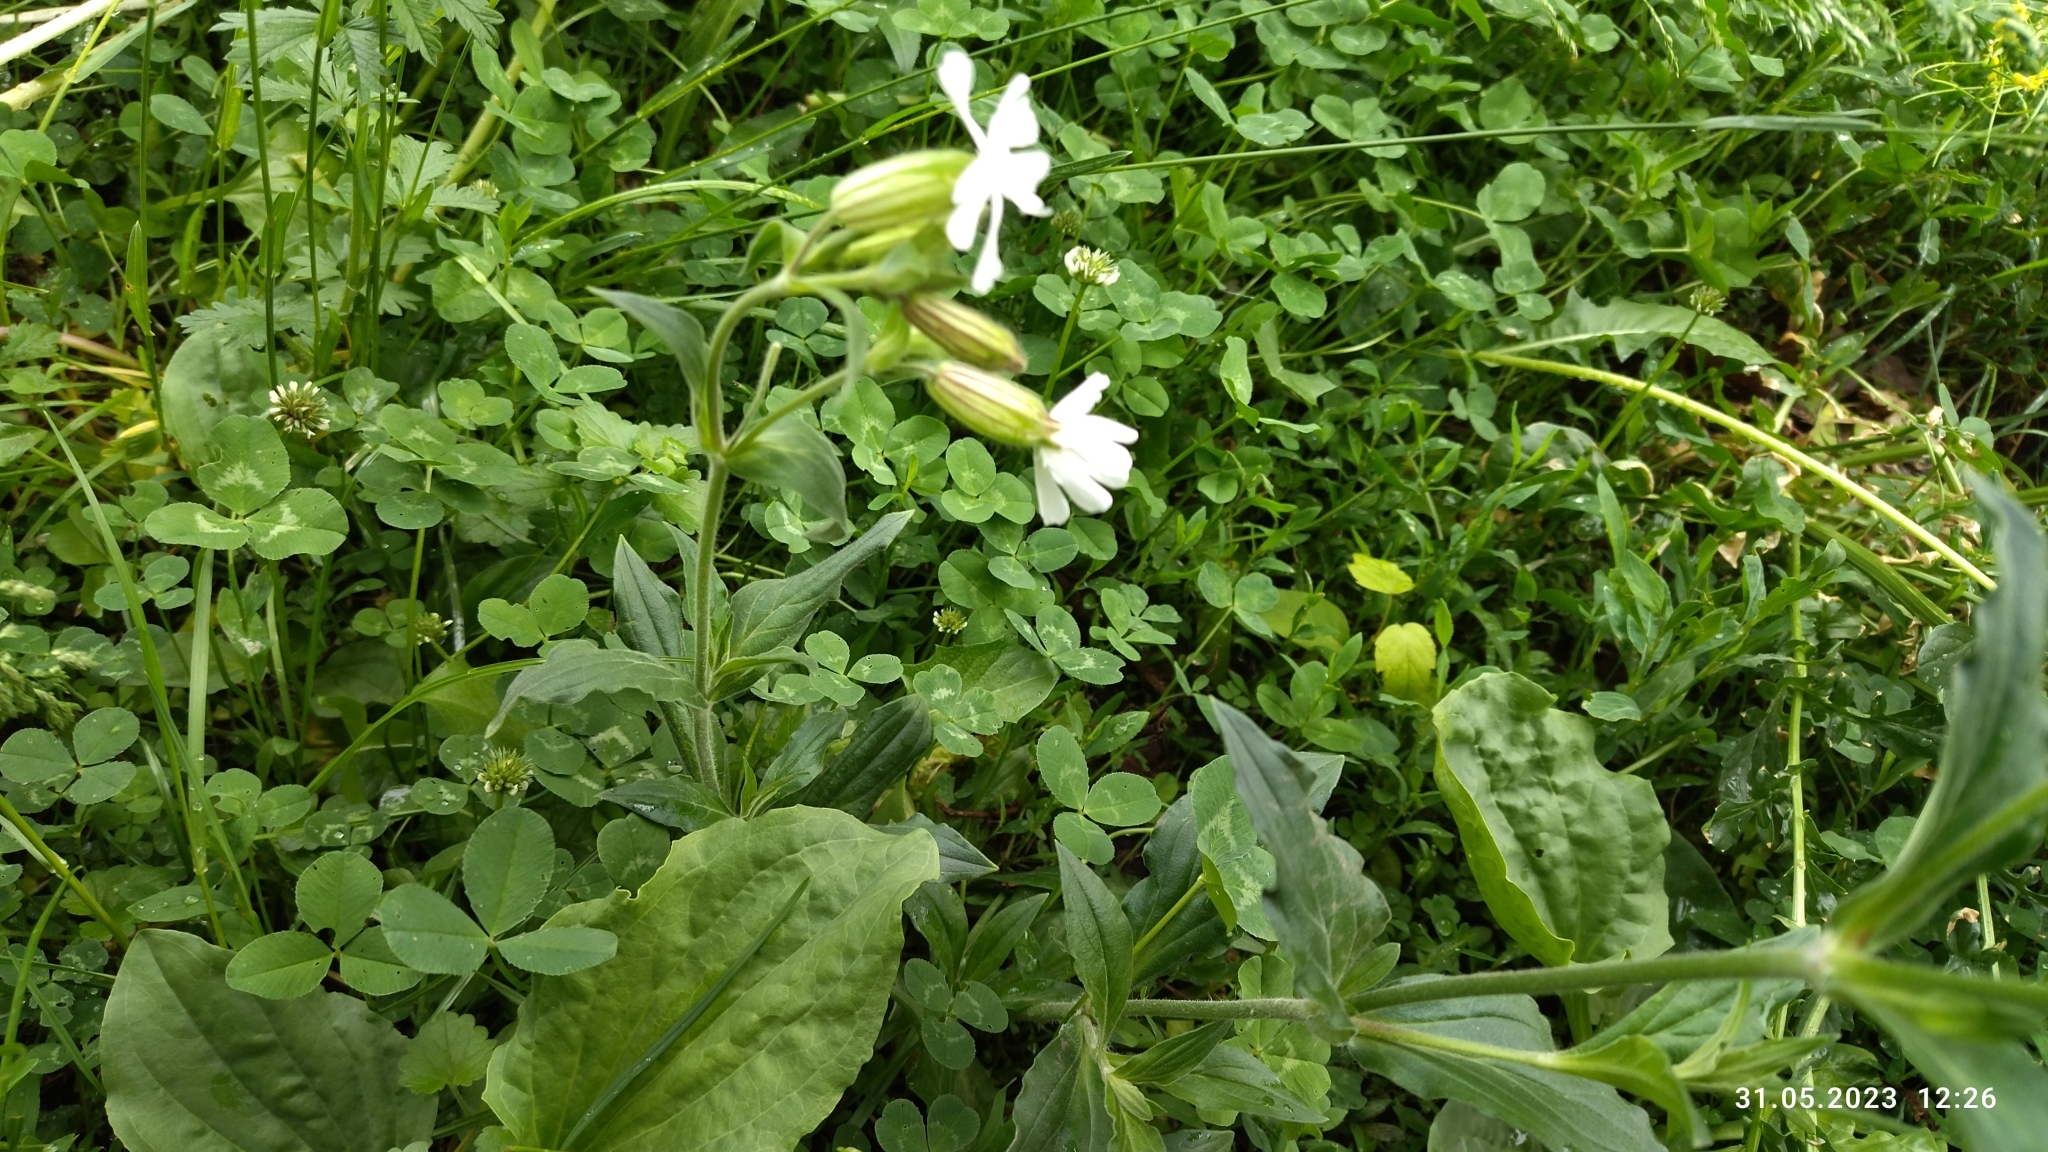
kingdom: Plantae
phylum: Tracheophyta
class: Magnoliopsida
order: Caryophyllales
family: Caryophyllaceae
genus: Silene
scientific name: Silene latifolia
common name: White campion
